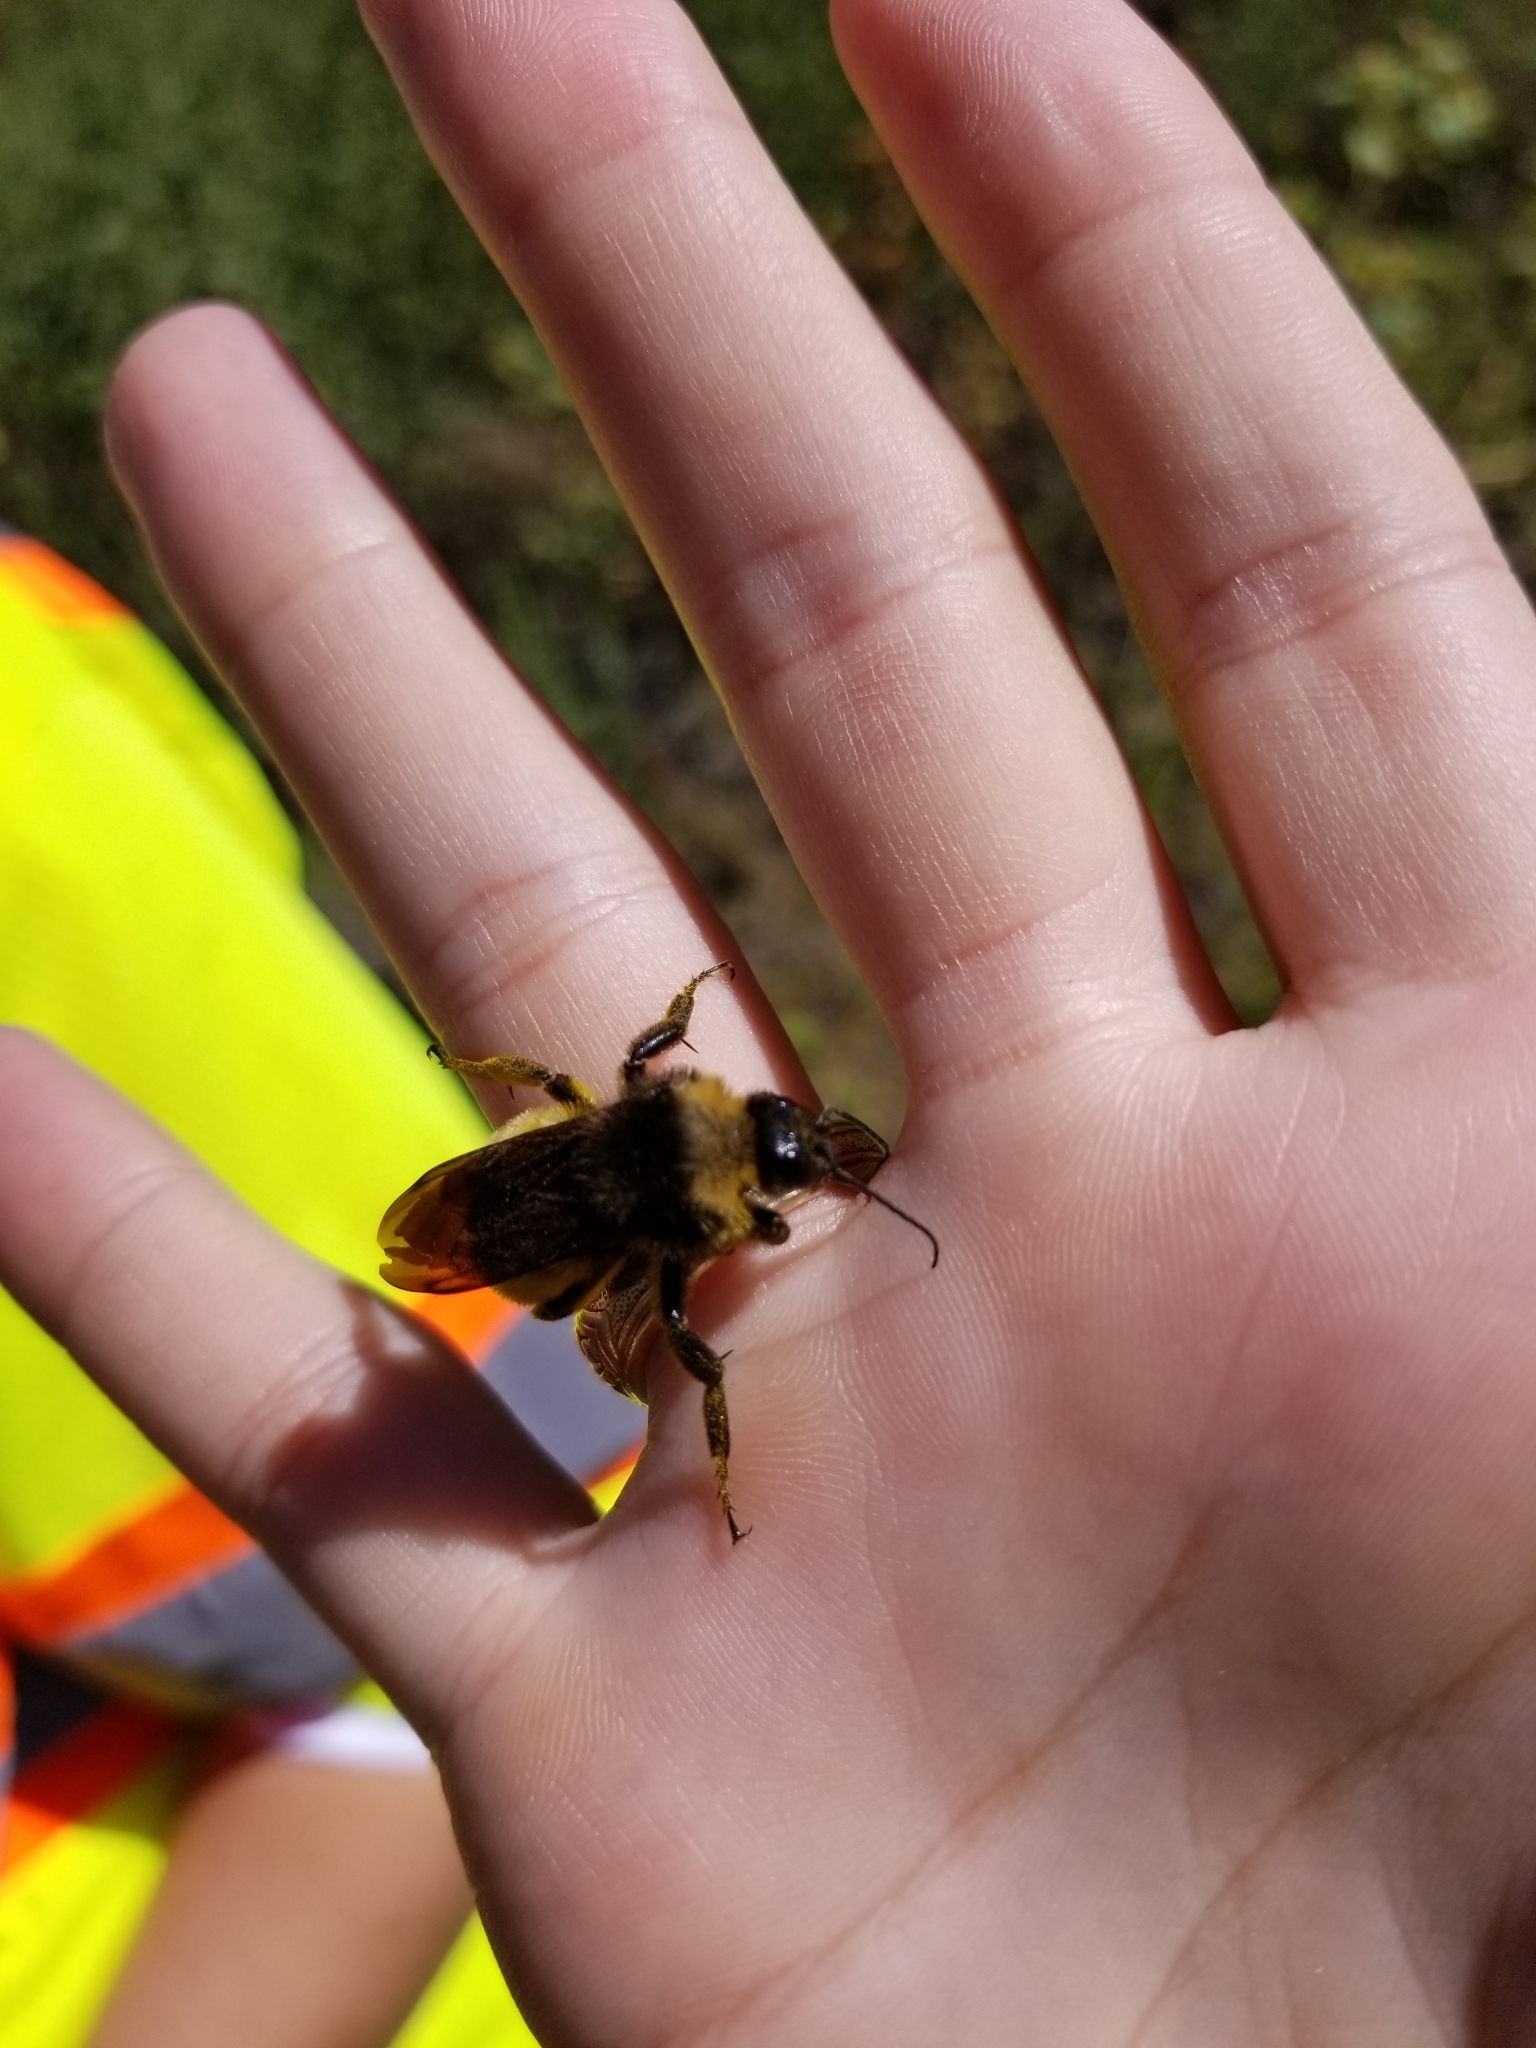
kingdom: Animalia
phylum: Arthropoda
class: Insecta
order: Hymenoptera
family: Apidae
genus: Bombus
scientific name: Bombus pensylvanicus
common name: Bumble bee
